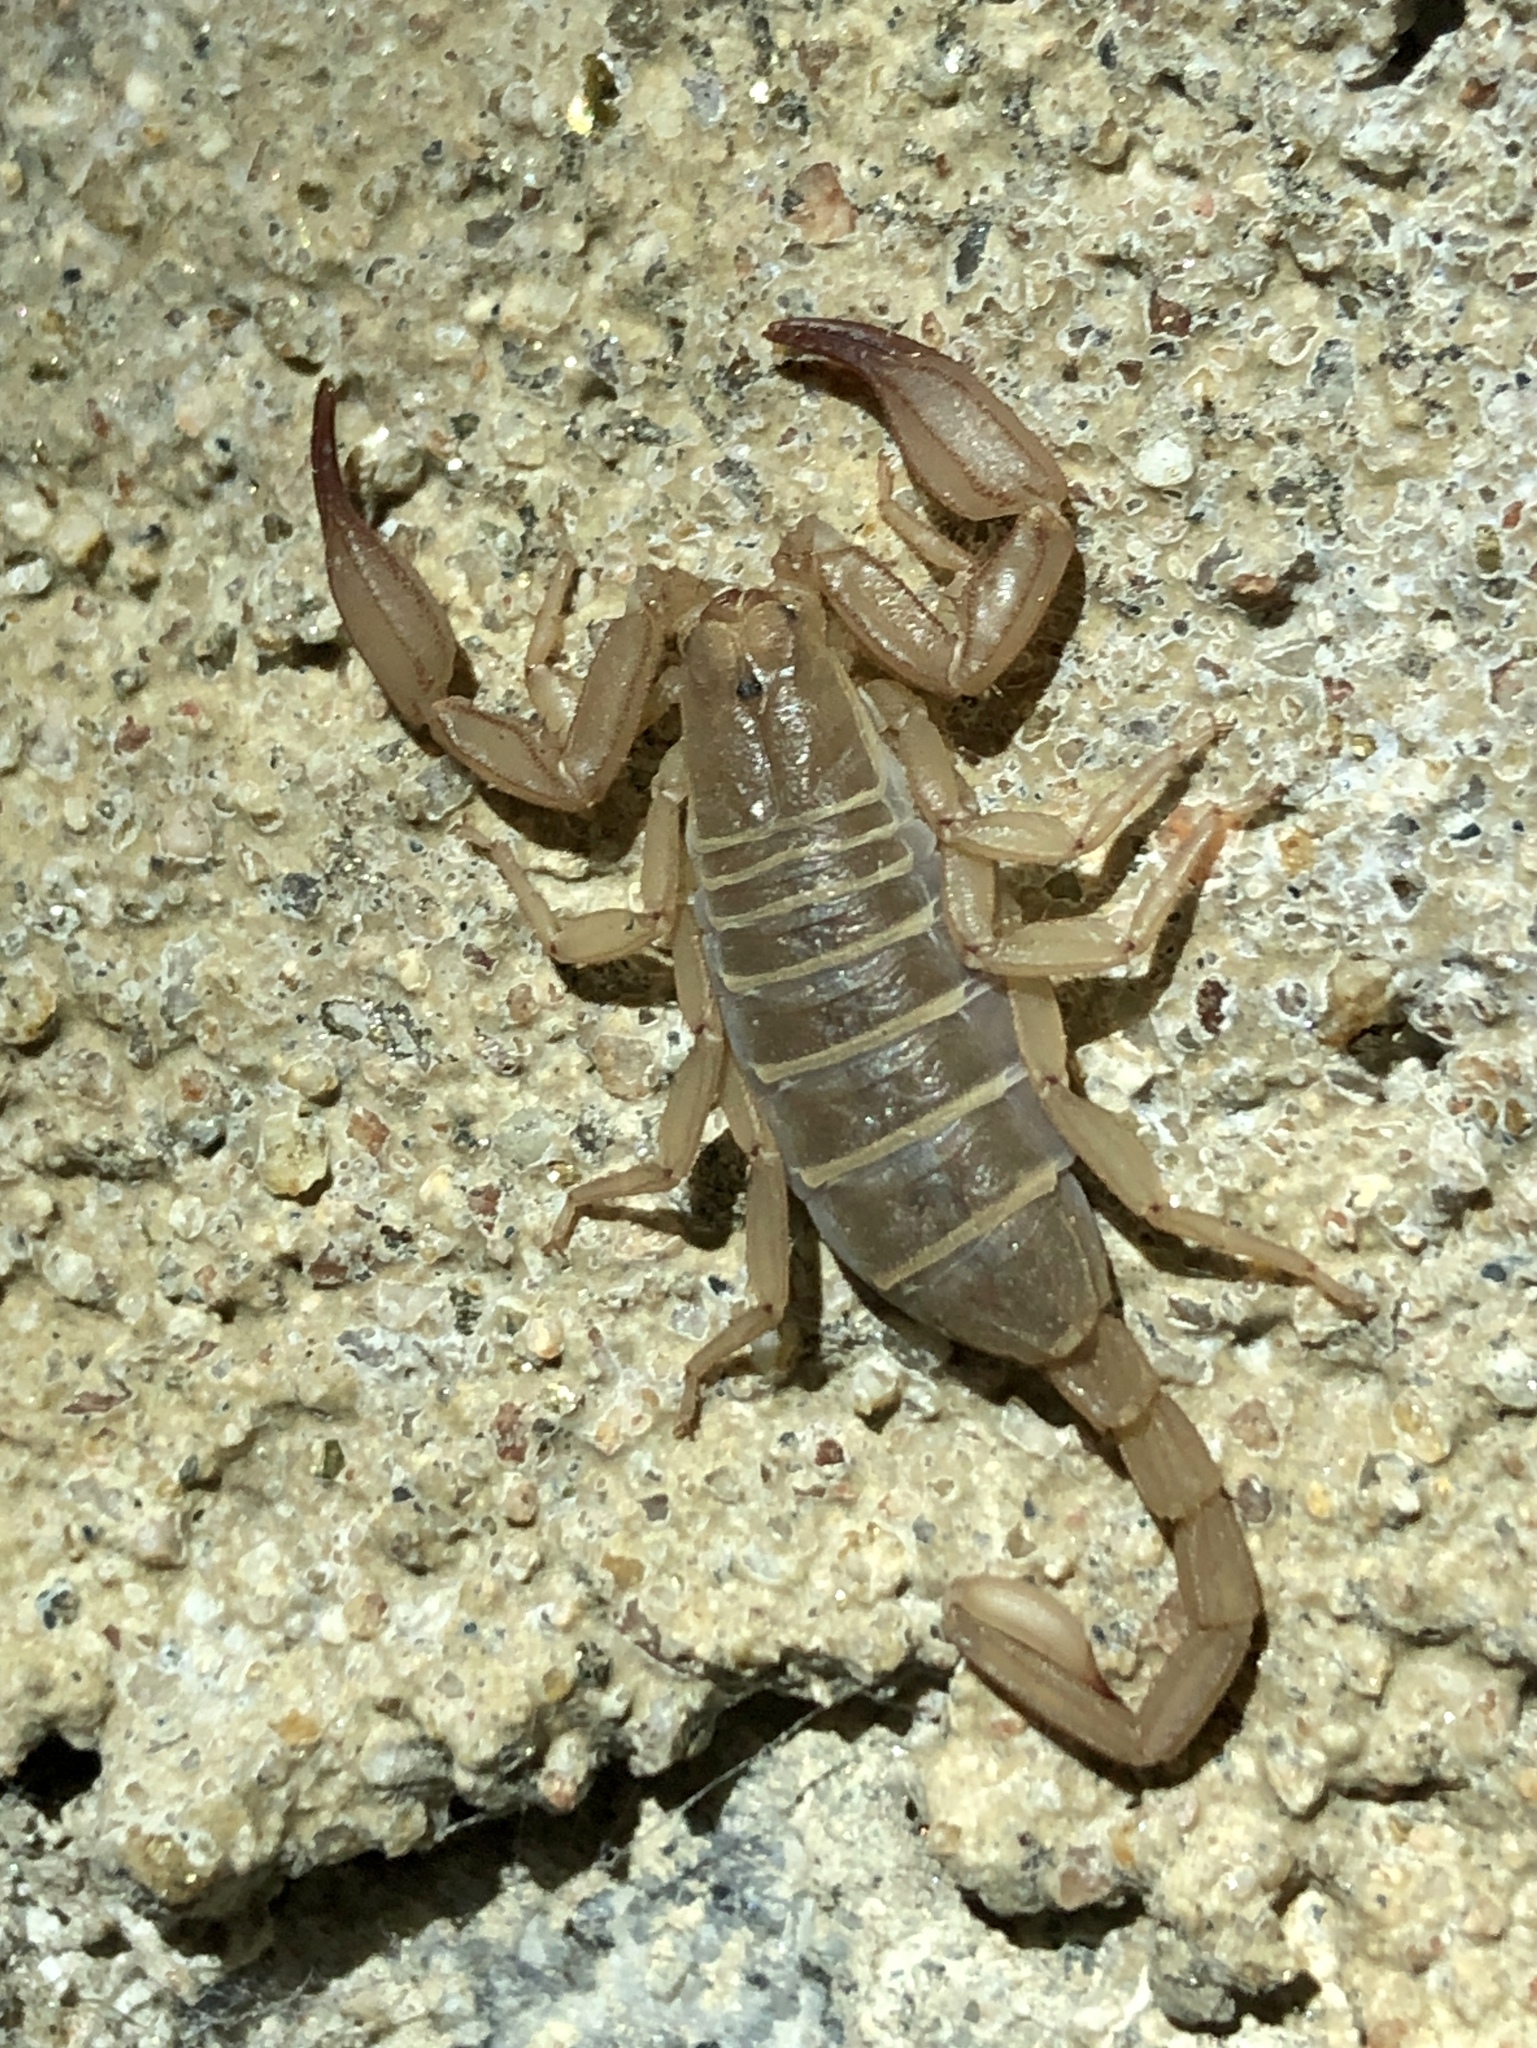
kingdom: Animalia
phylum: Arthropoda
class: Arachnida
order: Scorpiones
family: Vaejovidae
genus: Kovarikia
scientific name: Kovarikia savaryi
